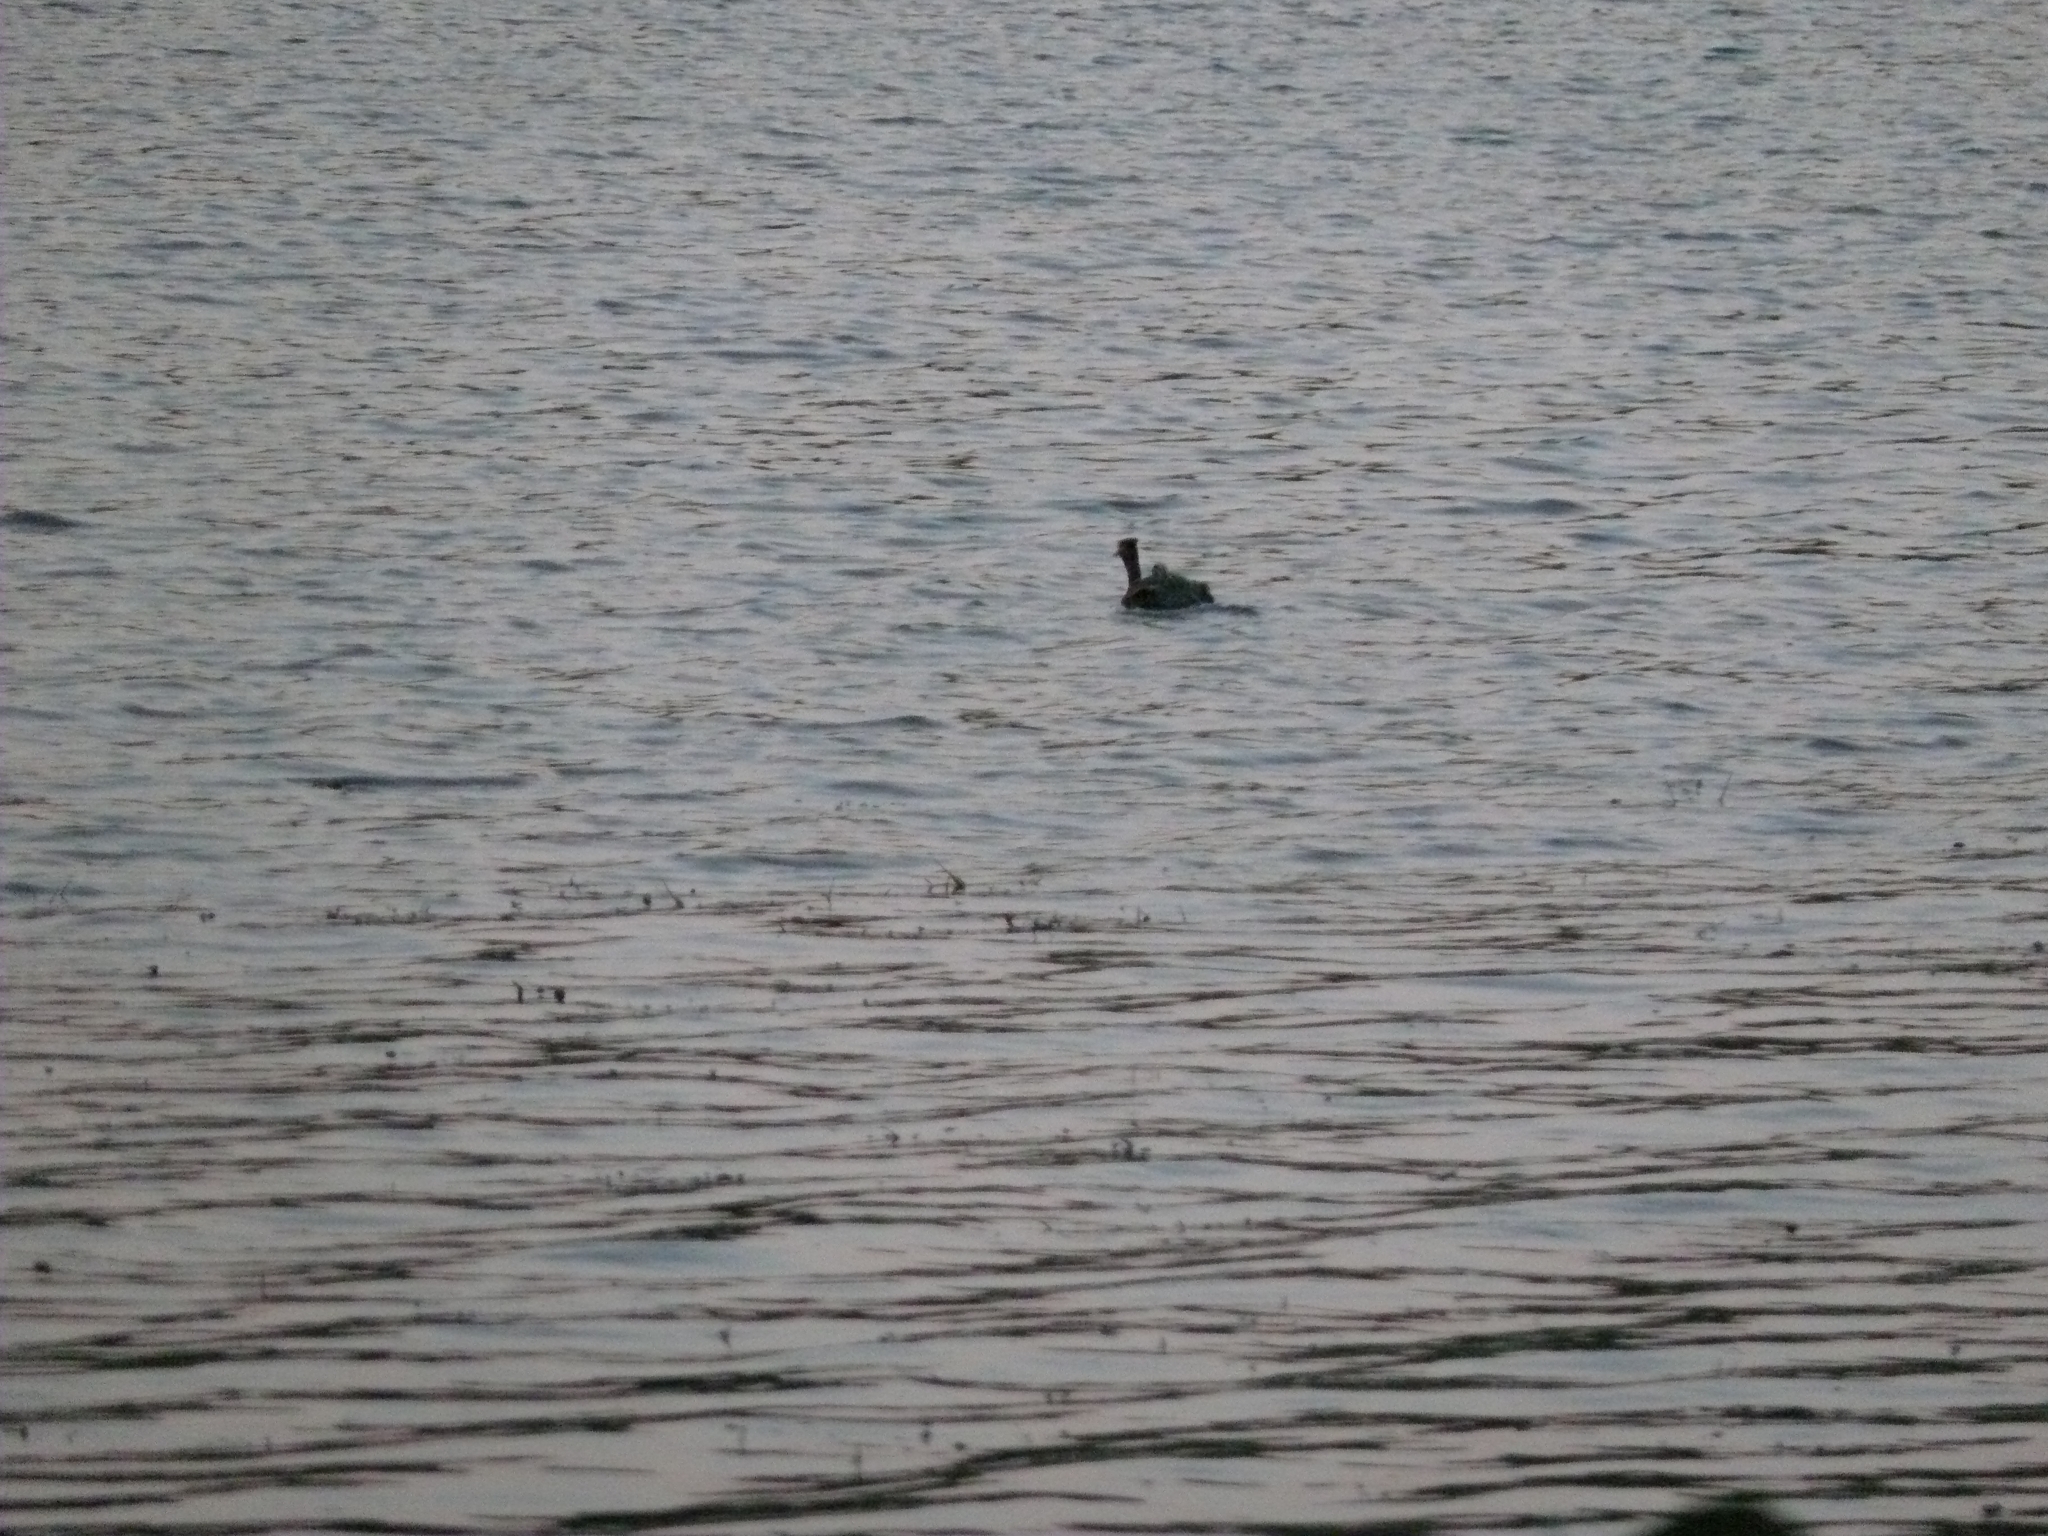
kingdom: Animalia
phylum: Chordata
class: Aves
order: Podicipediformes
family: Podicipedidae
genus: Podiceps
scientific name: Podiceps cristatus
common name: Great crested grebe
